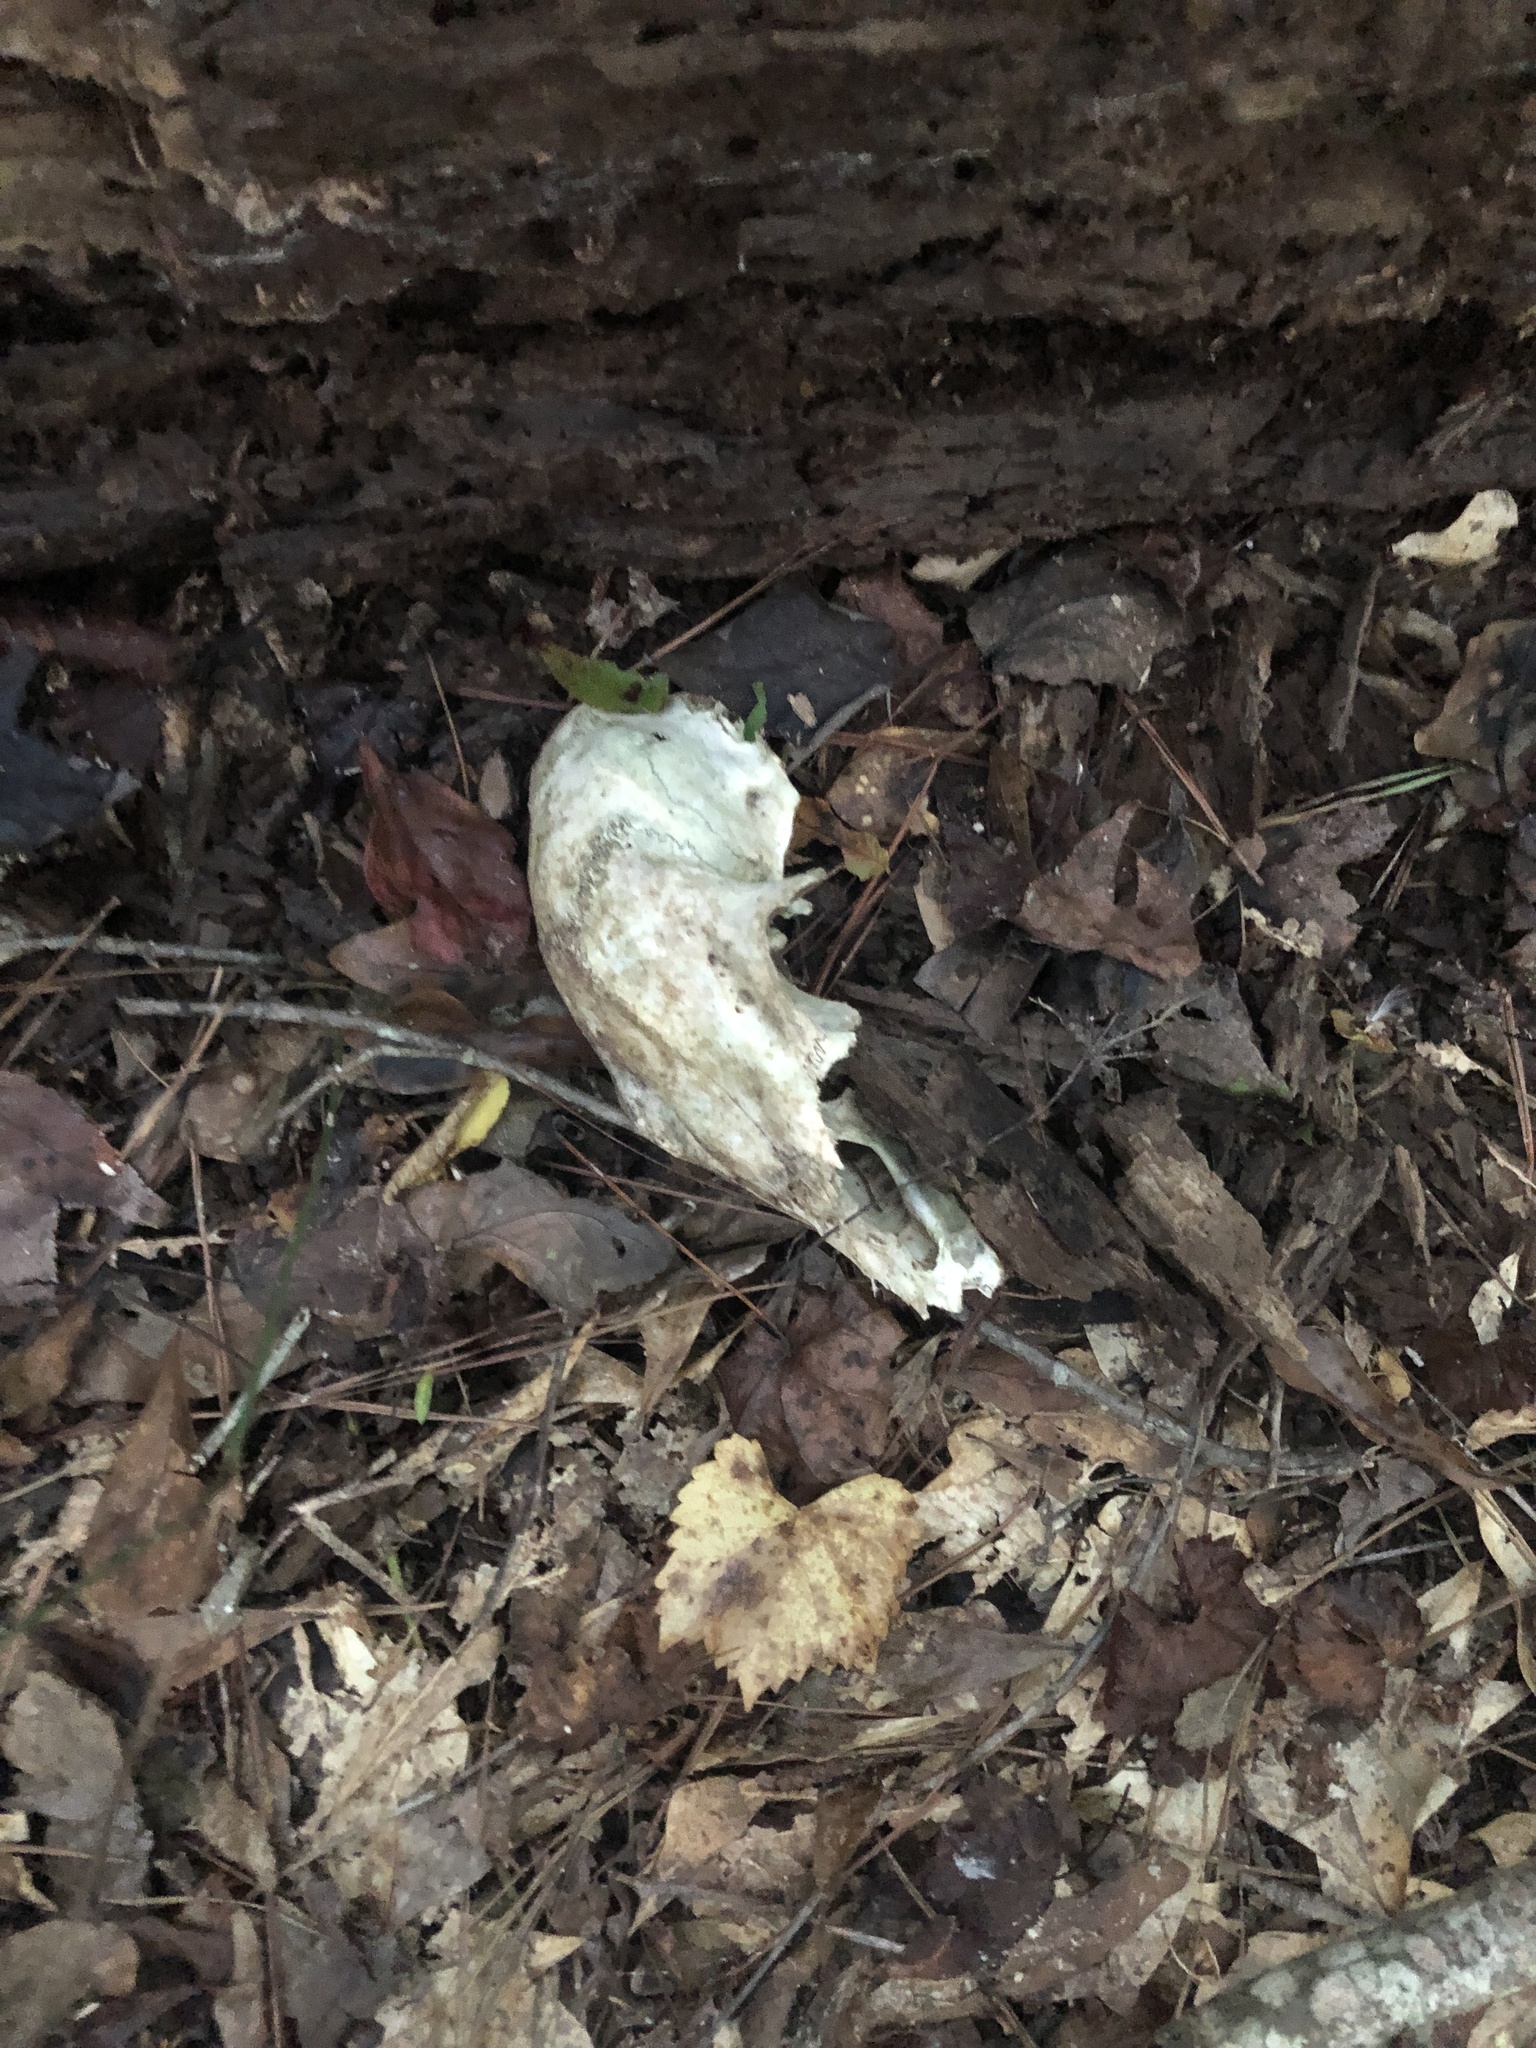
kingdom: Animalia
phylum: Chordata
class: Mammalia
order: Artiodactyla
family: Cervidae
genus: Odocoileus
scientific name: Odocoileus virginianus
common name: White-tailed deer
